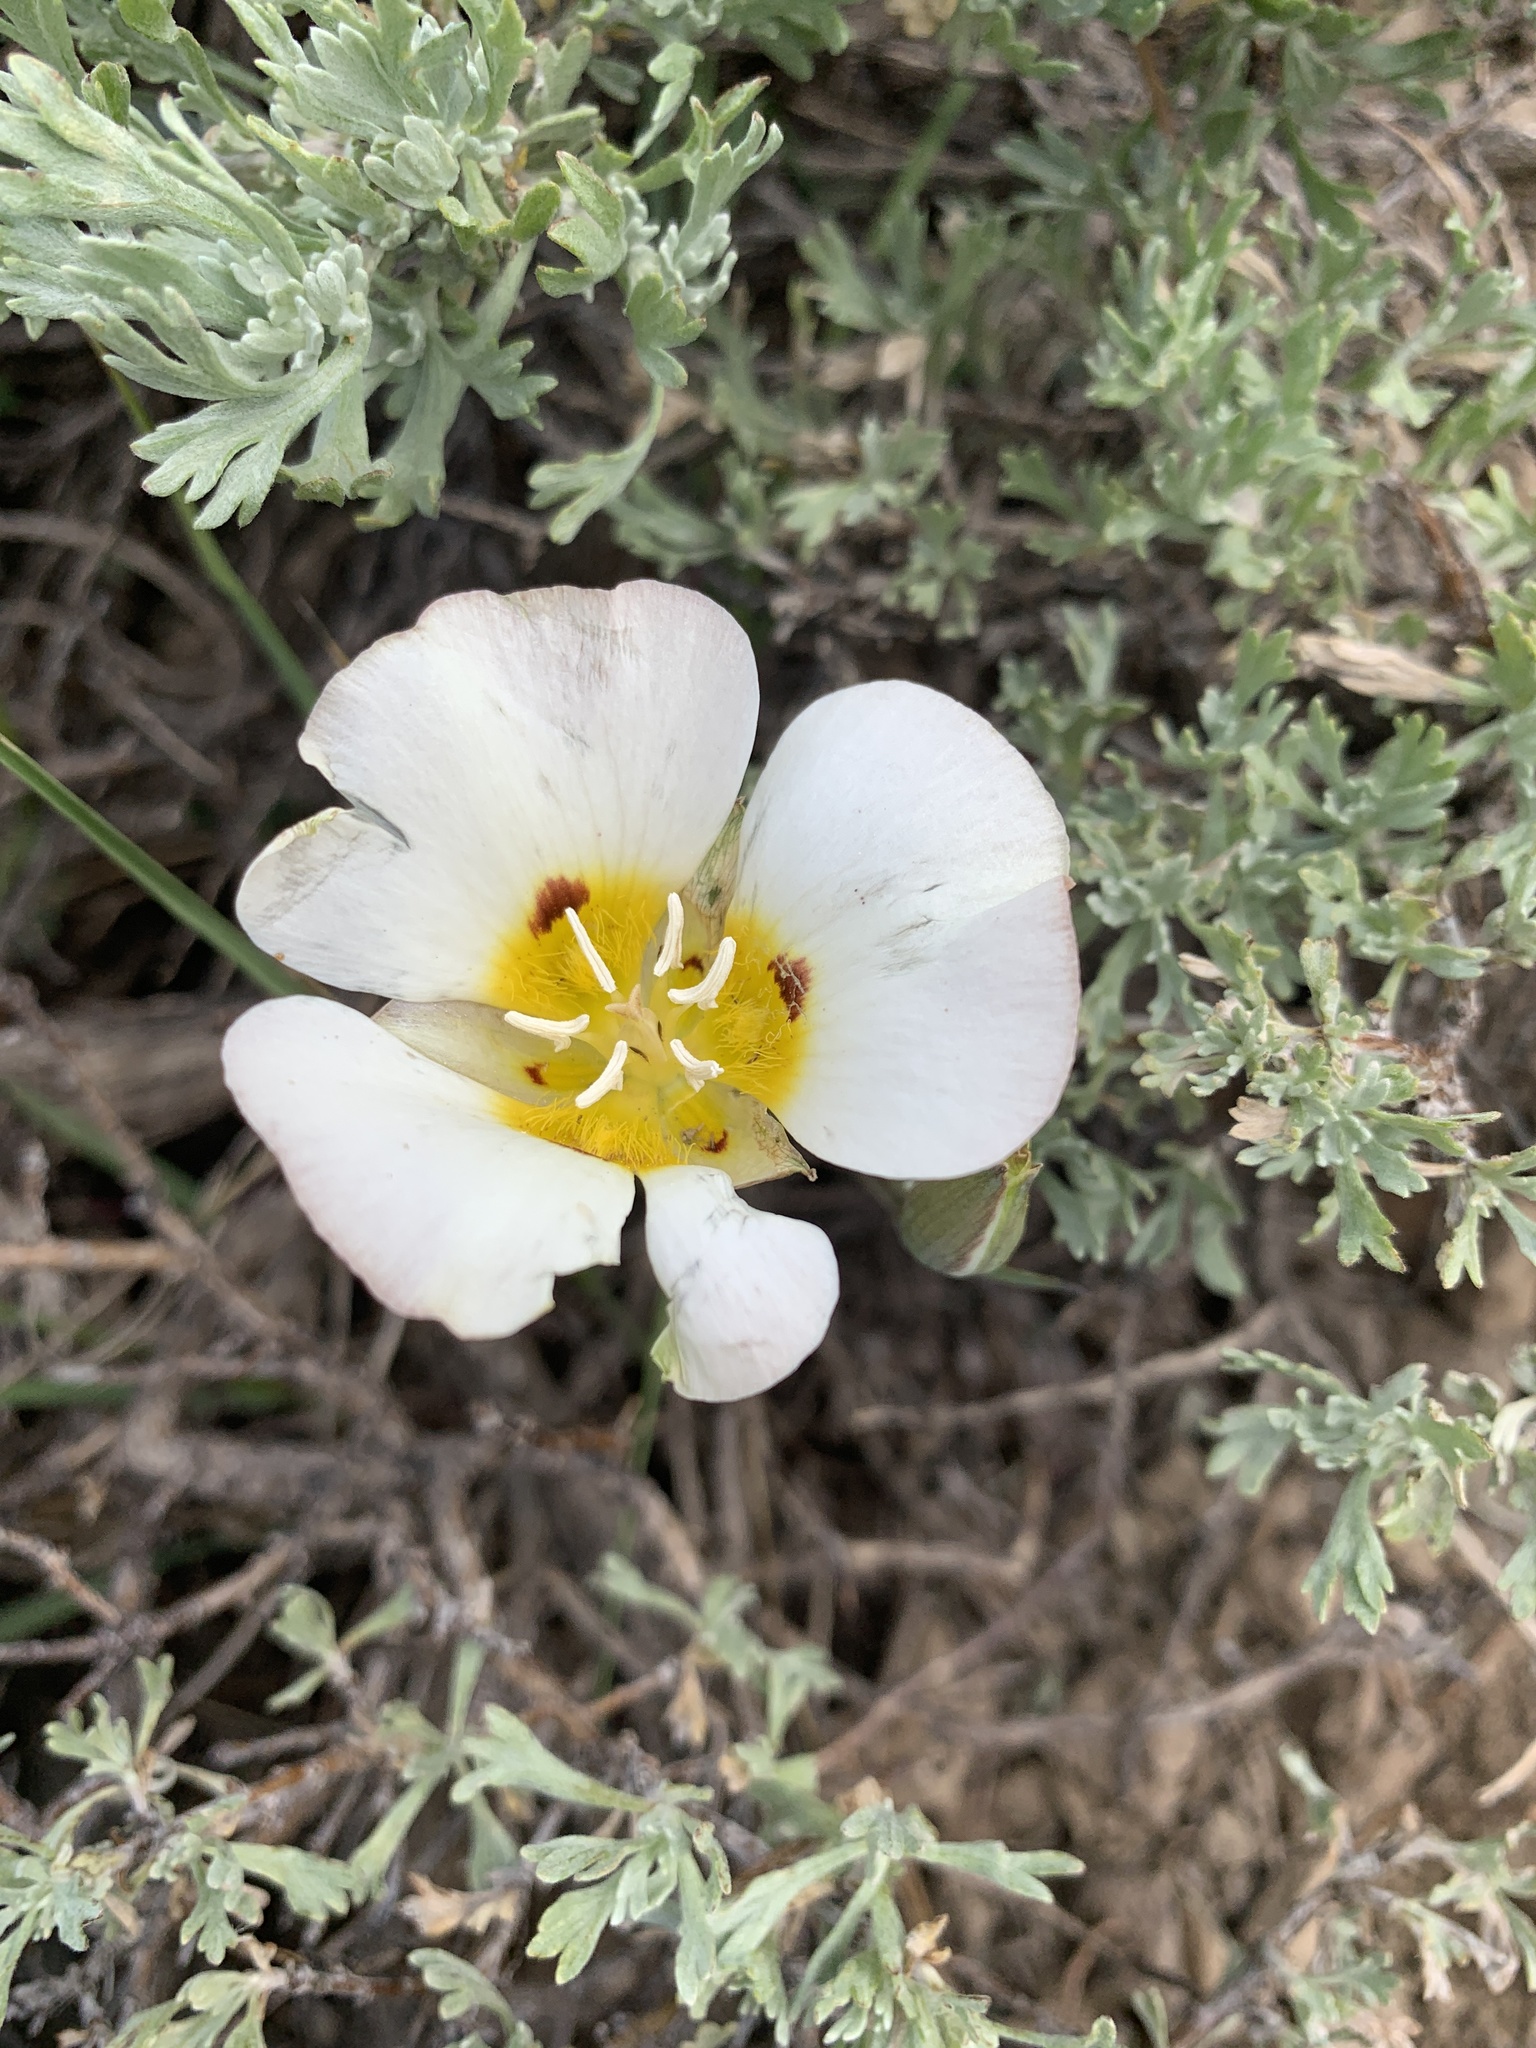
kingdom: Plantae
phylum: Tracheophyta
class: Liliopsida
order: Liliales
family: Liliaceae
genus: Calochortus
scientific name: Calochortus leichtlinii
